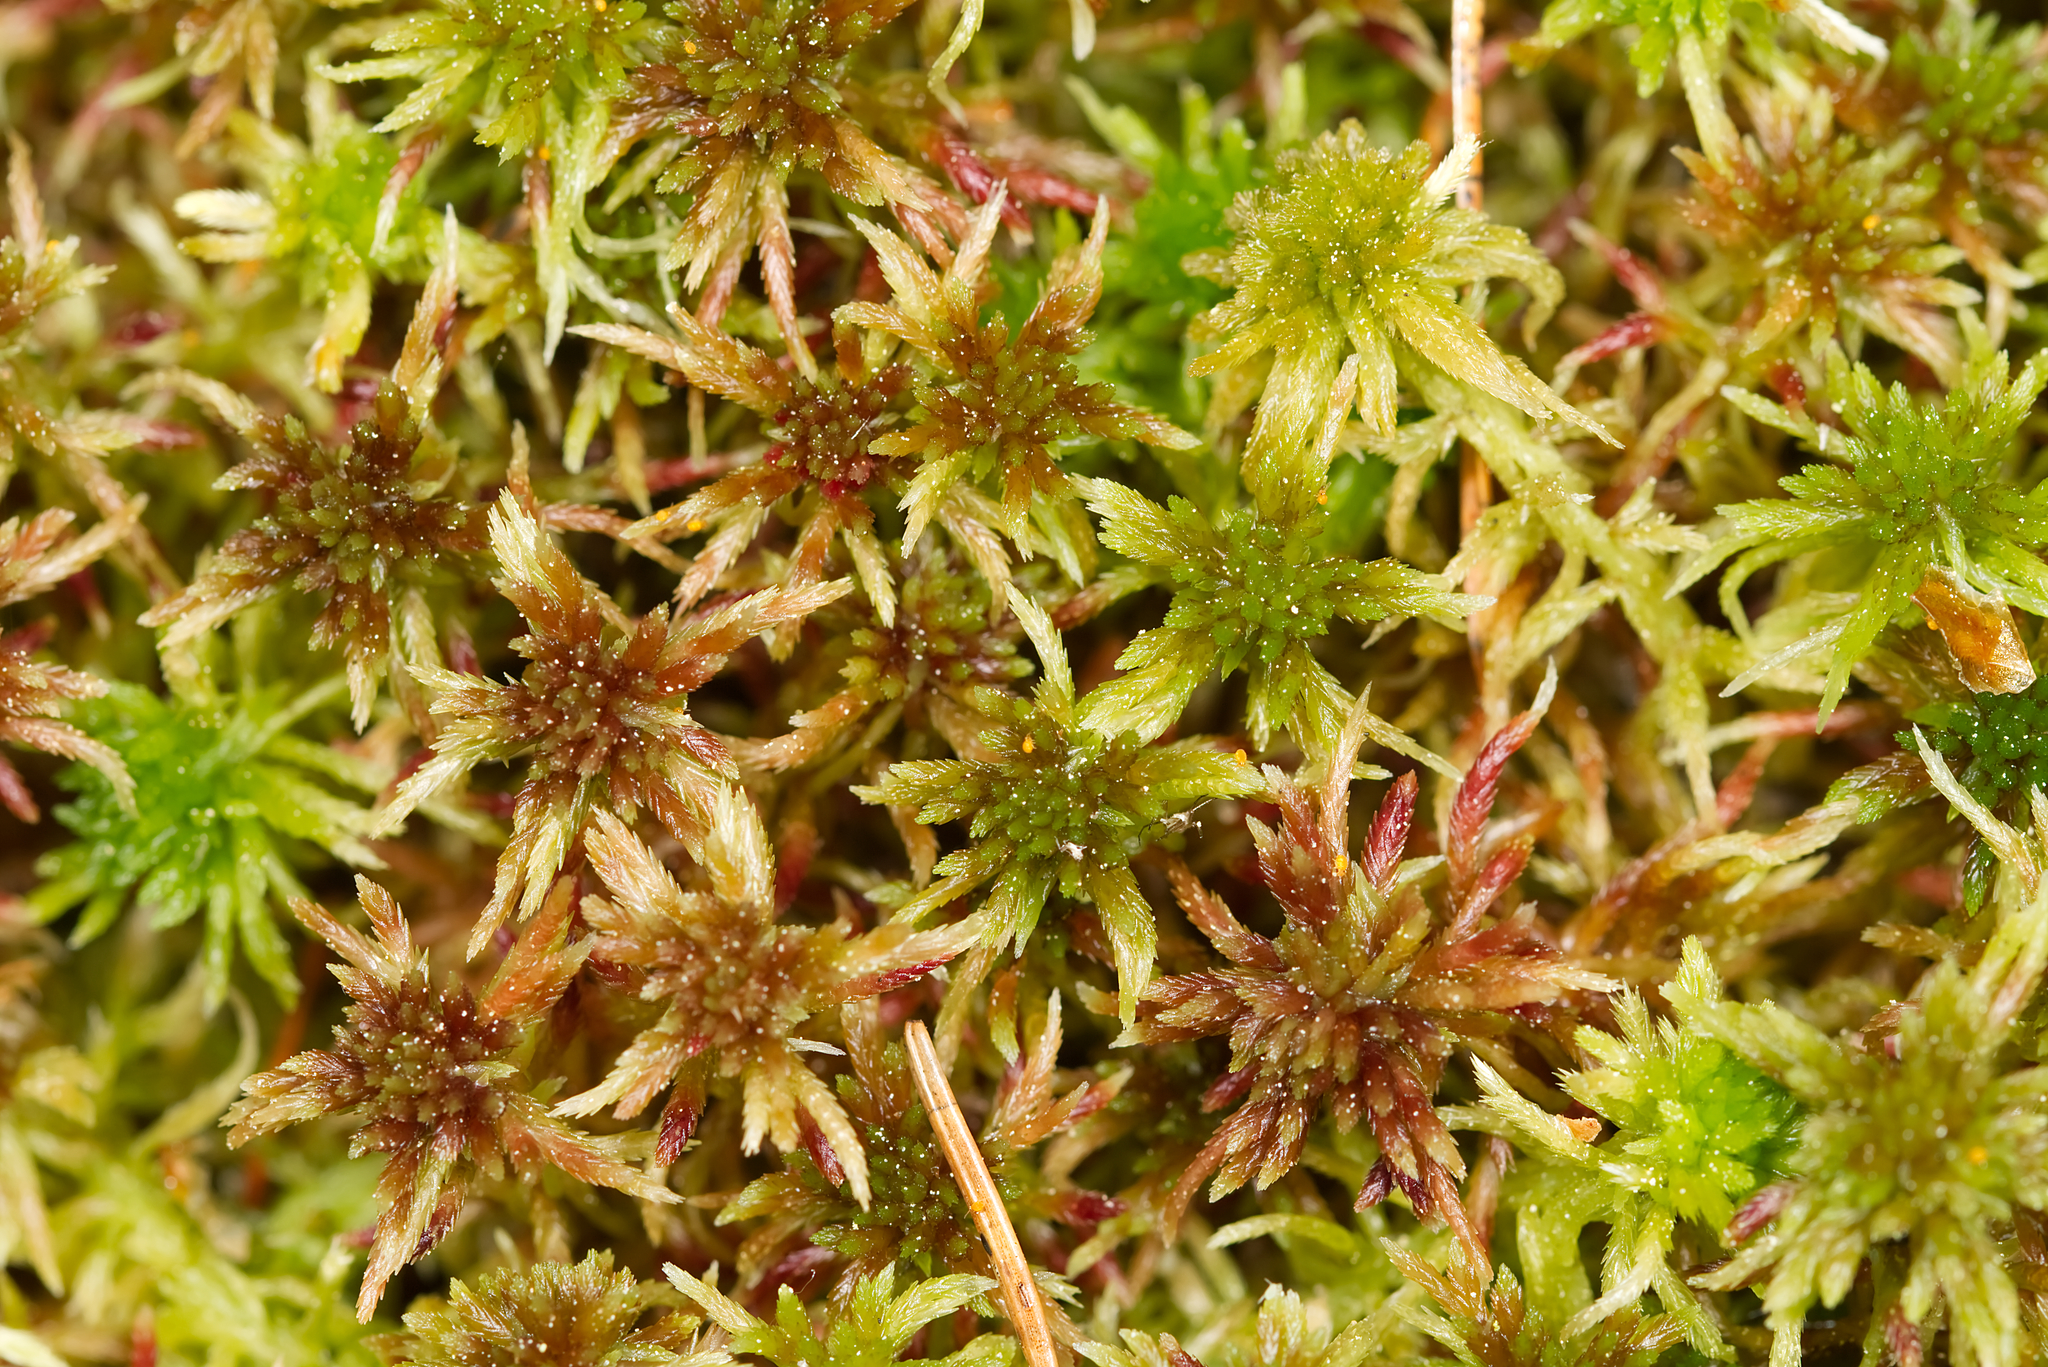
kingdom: Plantae
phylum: Bryophyta
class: Sphagnopsida
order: Sphagnales
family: Sphagnaceae
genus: Sphagnum
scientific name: Sphagnum russowii
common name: Russow's peat moss
